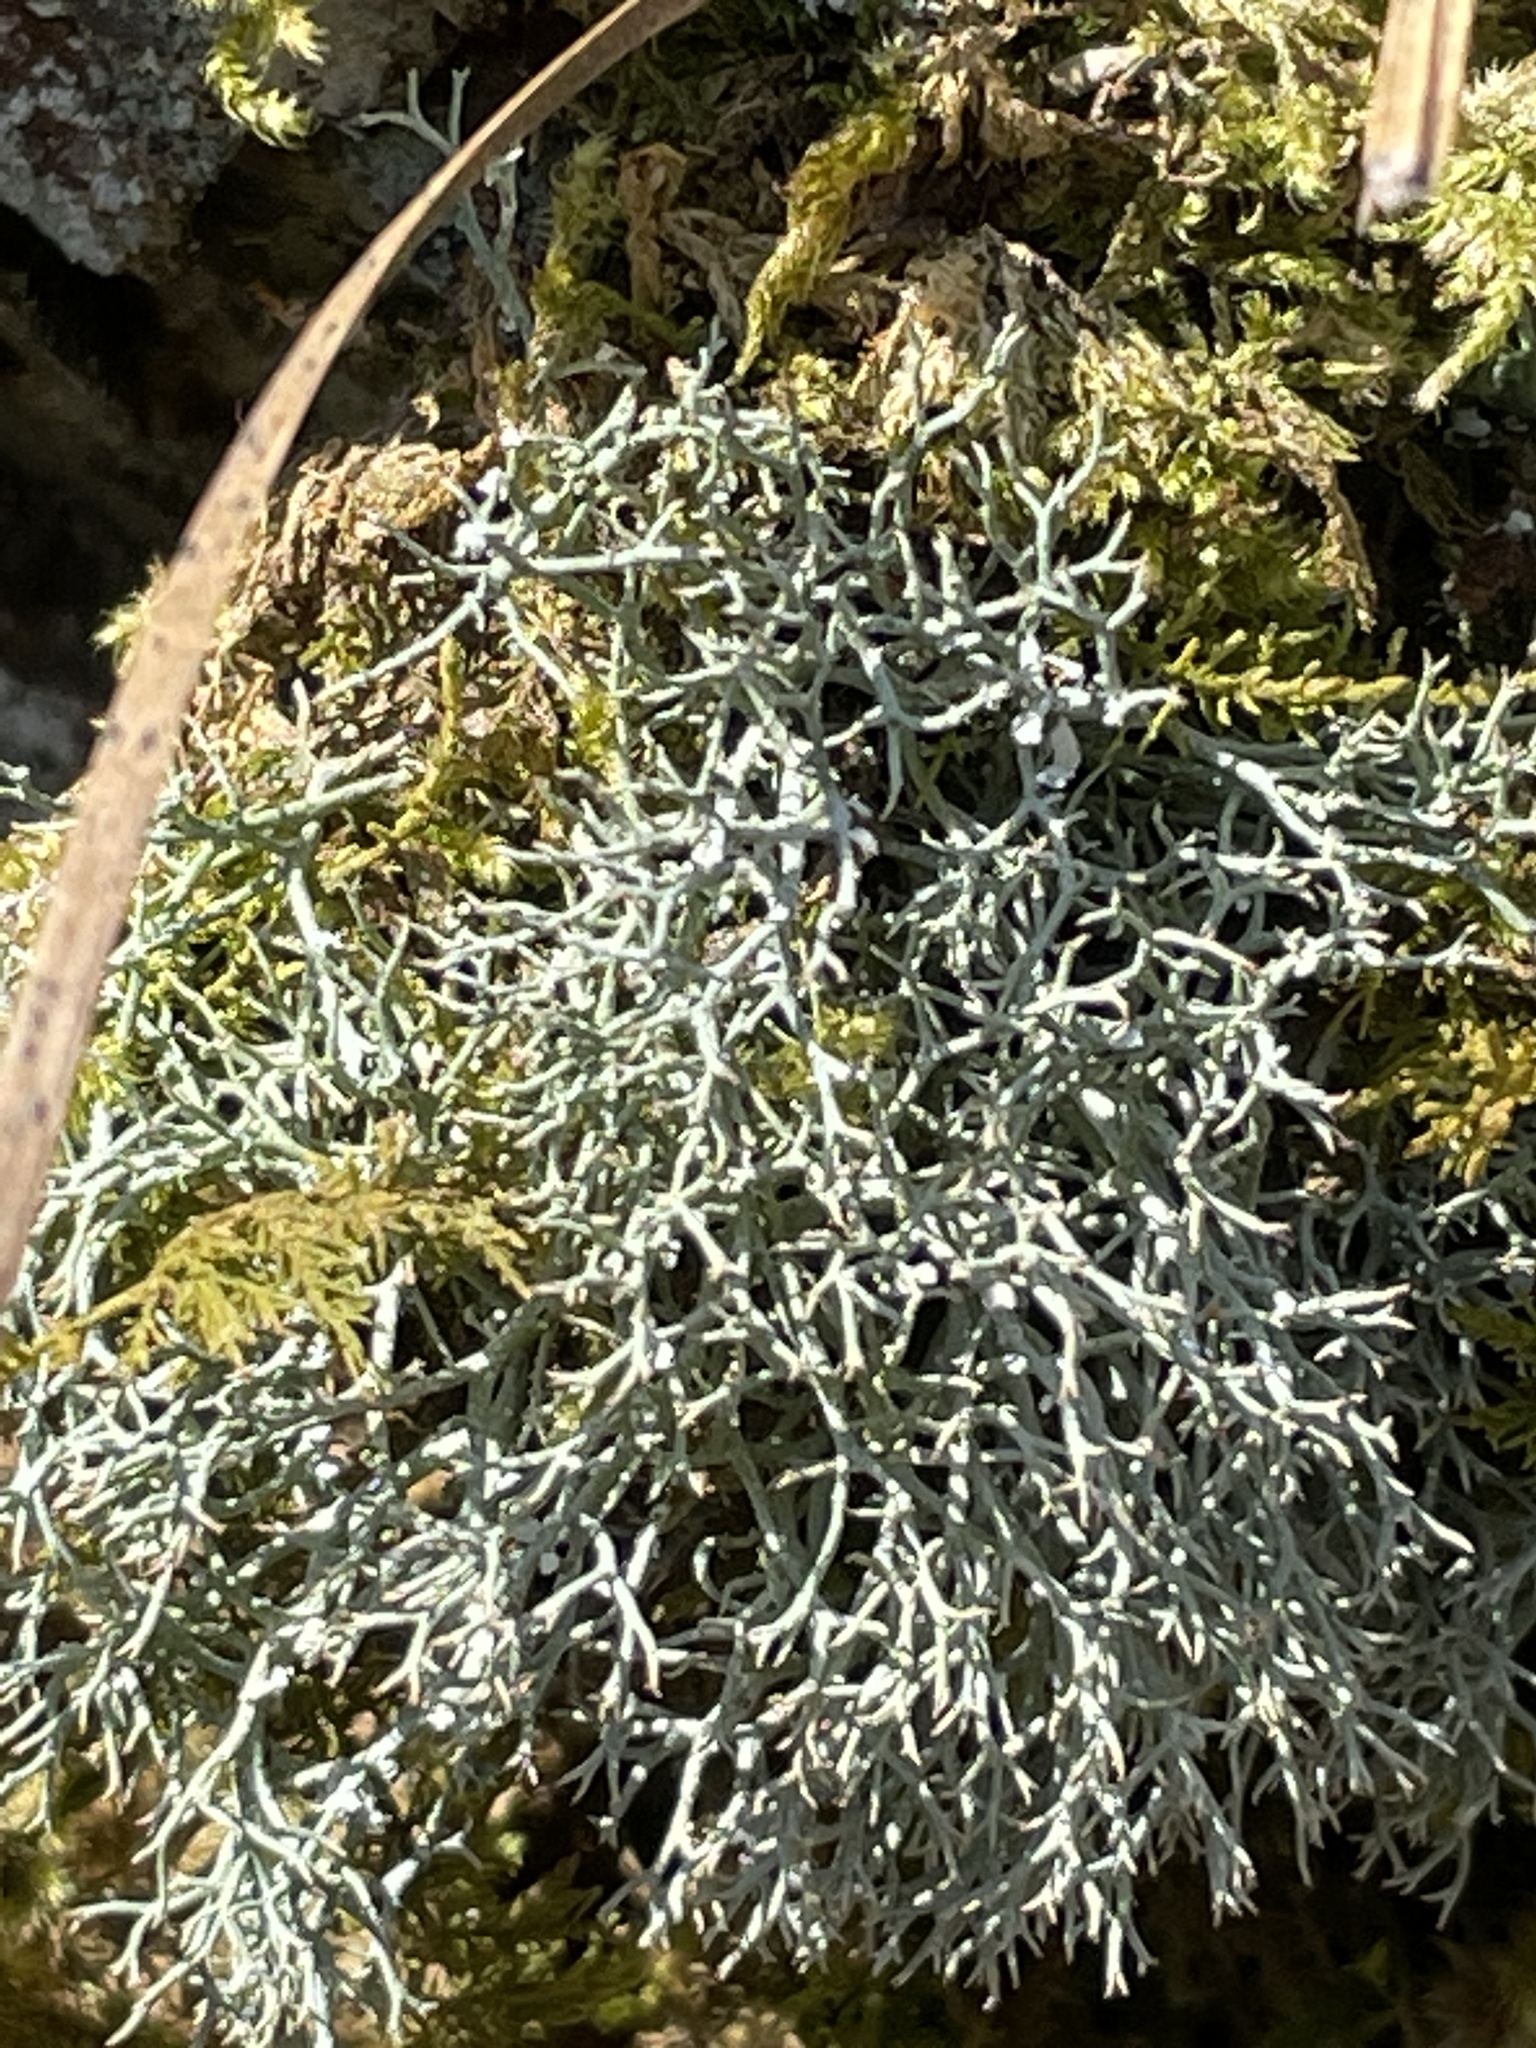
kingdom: Fungi
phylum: Ascomycota
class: Lecanoromycetes
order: Lecanorales
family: Cladoniaceae
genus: Cladonia
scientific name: Cladonia furcata
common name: Many-forked cladonia
